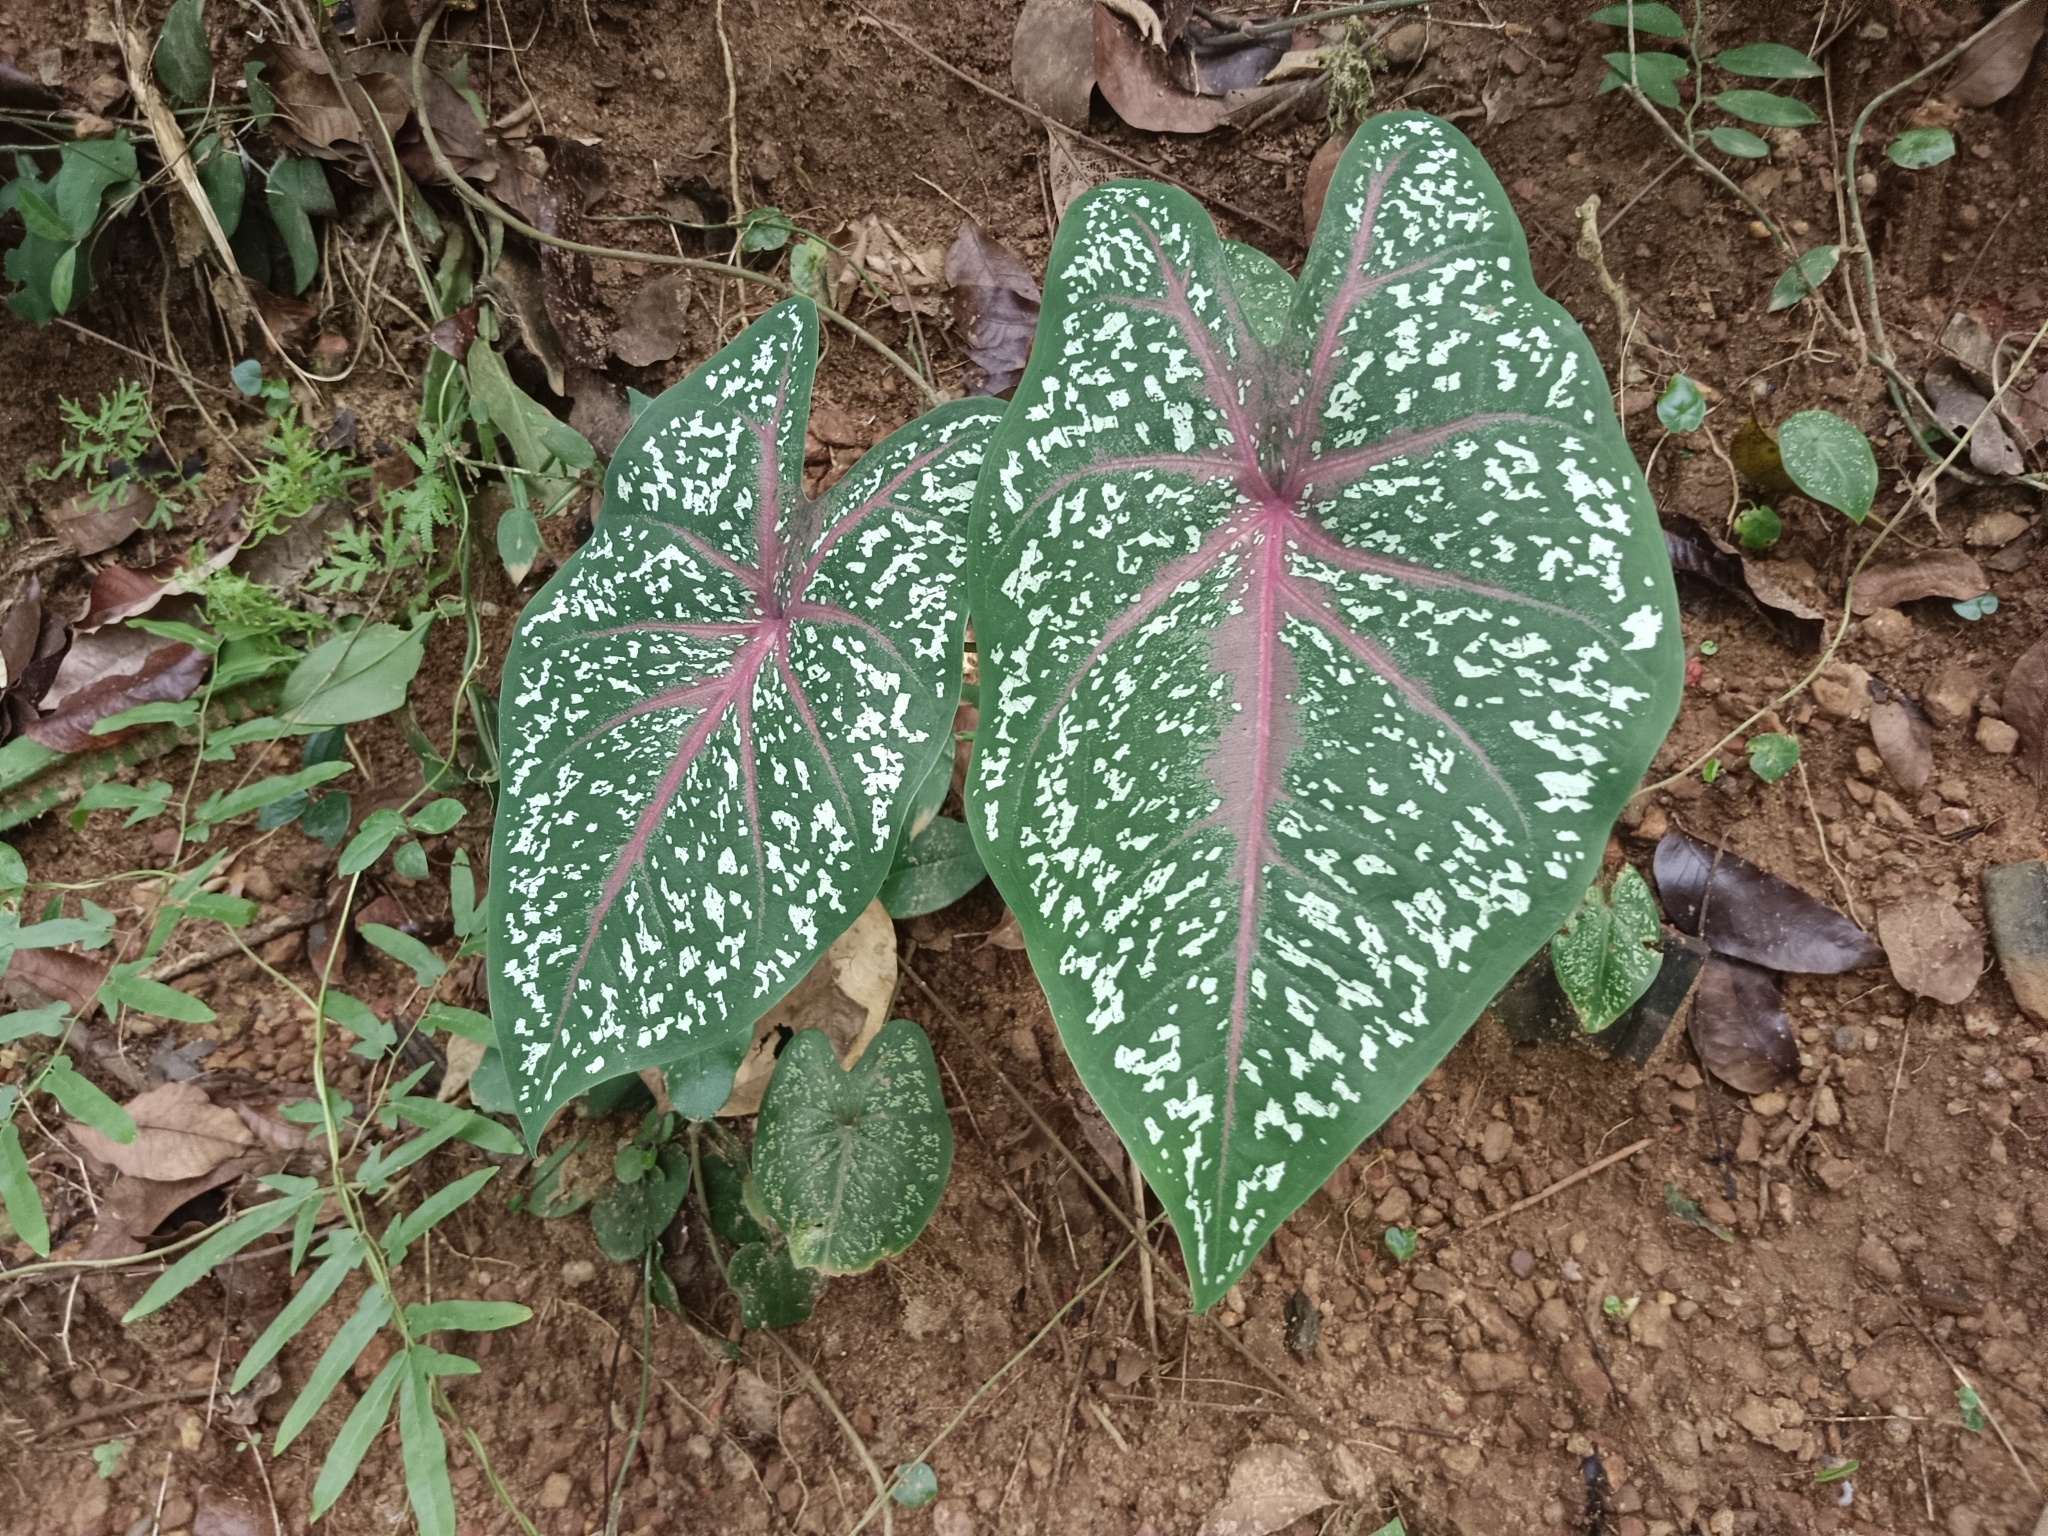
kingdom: Plantae
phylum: Tracheophyta
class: Liliopsida
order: Alismatales
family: Araceae
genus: Caladium
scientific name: Caladium bicolor
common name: Artist's pallet
